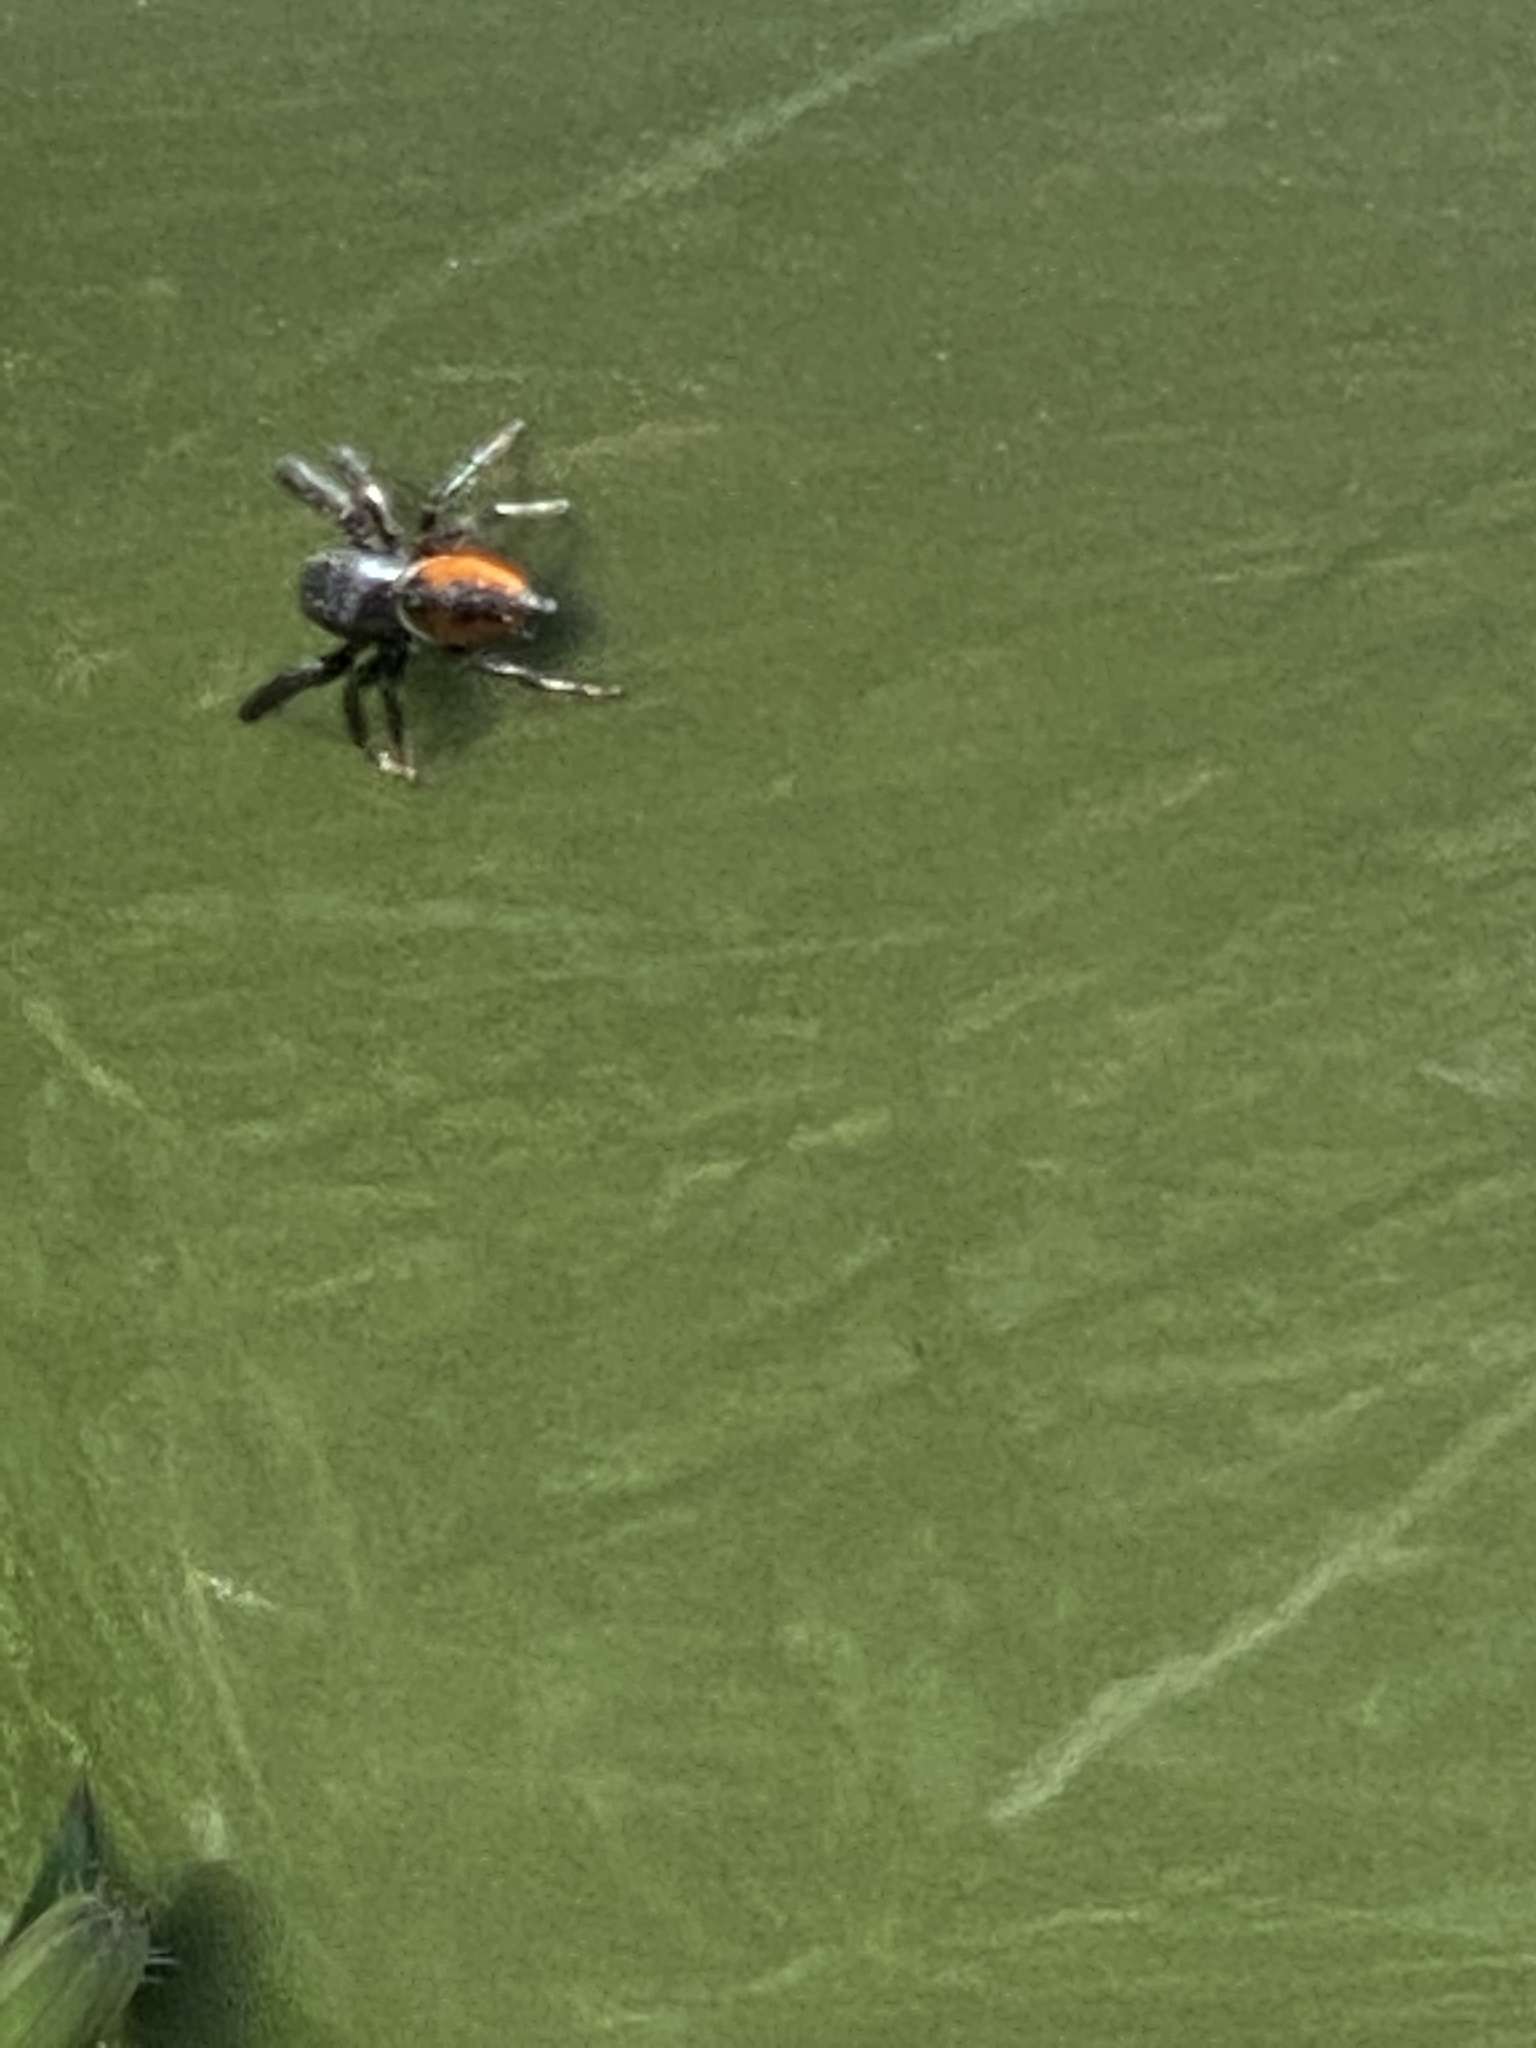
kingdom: Animalia
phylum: Arthropoda
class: Arachnida
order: Araneae
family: Salticidae
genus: Phidippus
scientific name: Phidippus clarus
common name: Brilliant jumping spider
